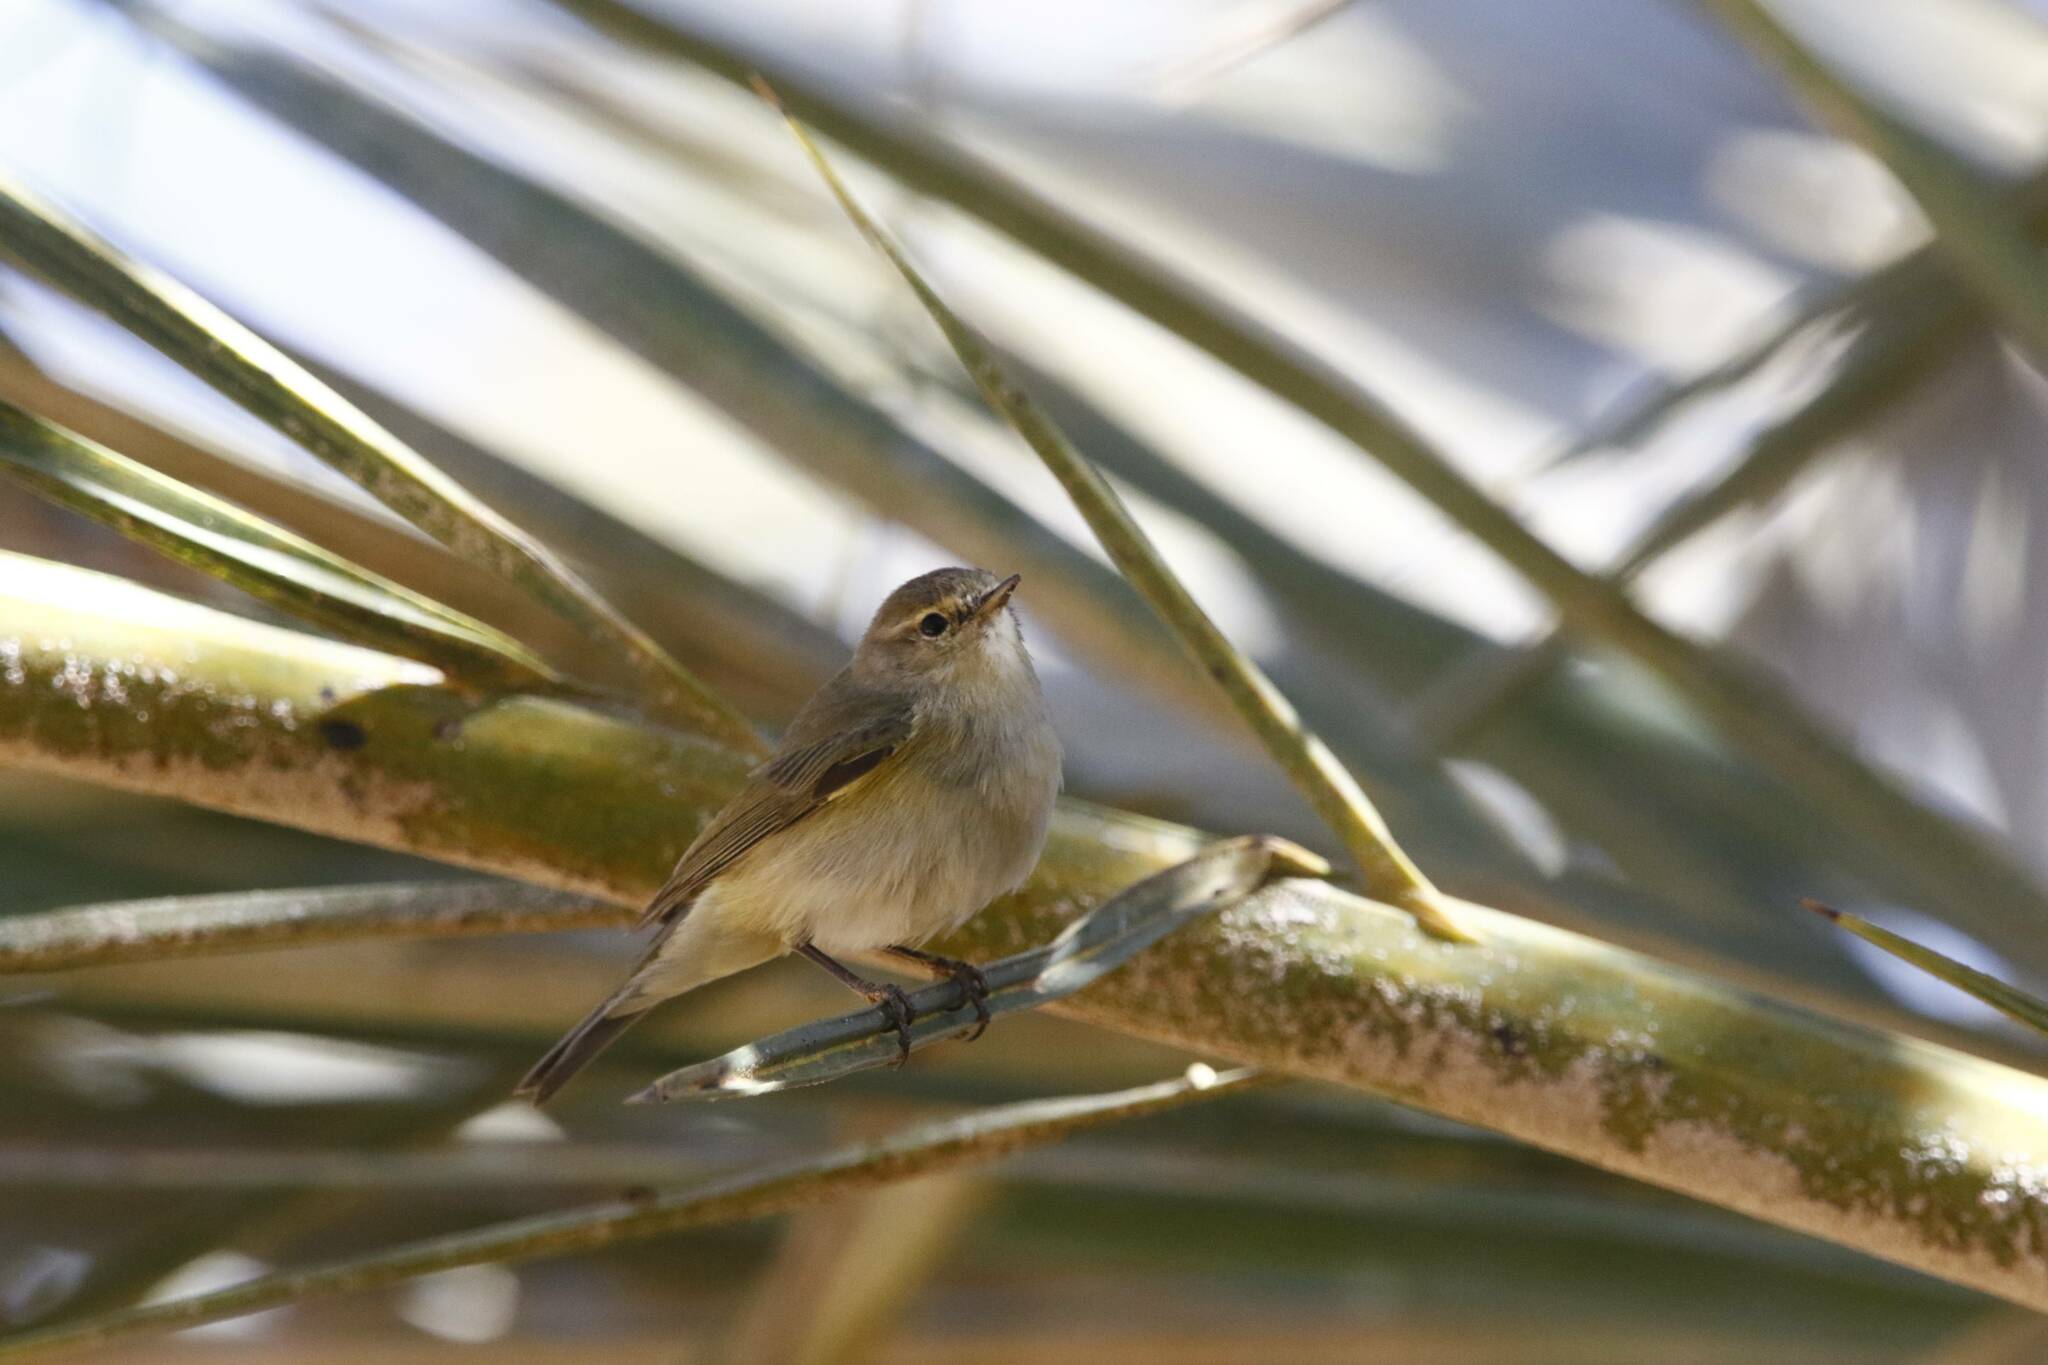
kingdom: Animalia
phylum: Chordata
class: Aves
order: Passeriformes
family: Phylloscopidae
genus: Phylloscopus
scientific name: Phylloscopus collybita
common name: Common chiffchaff
